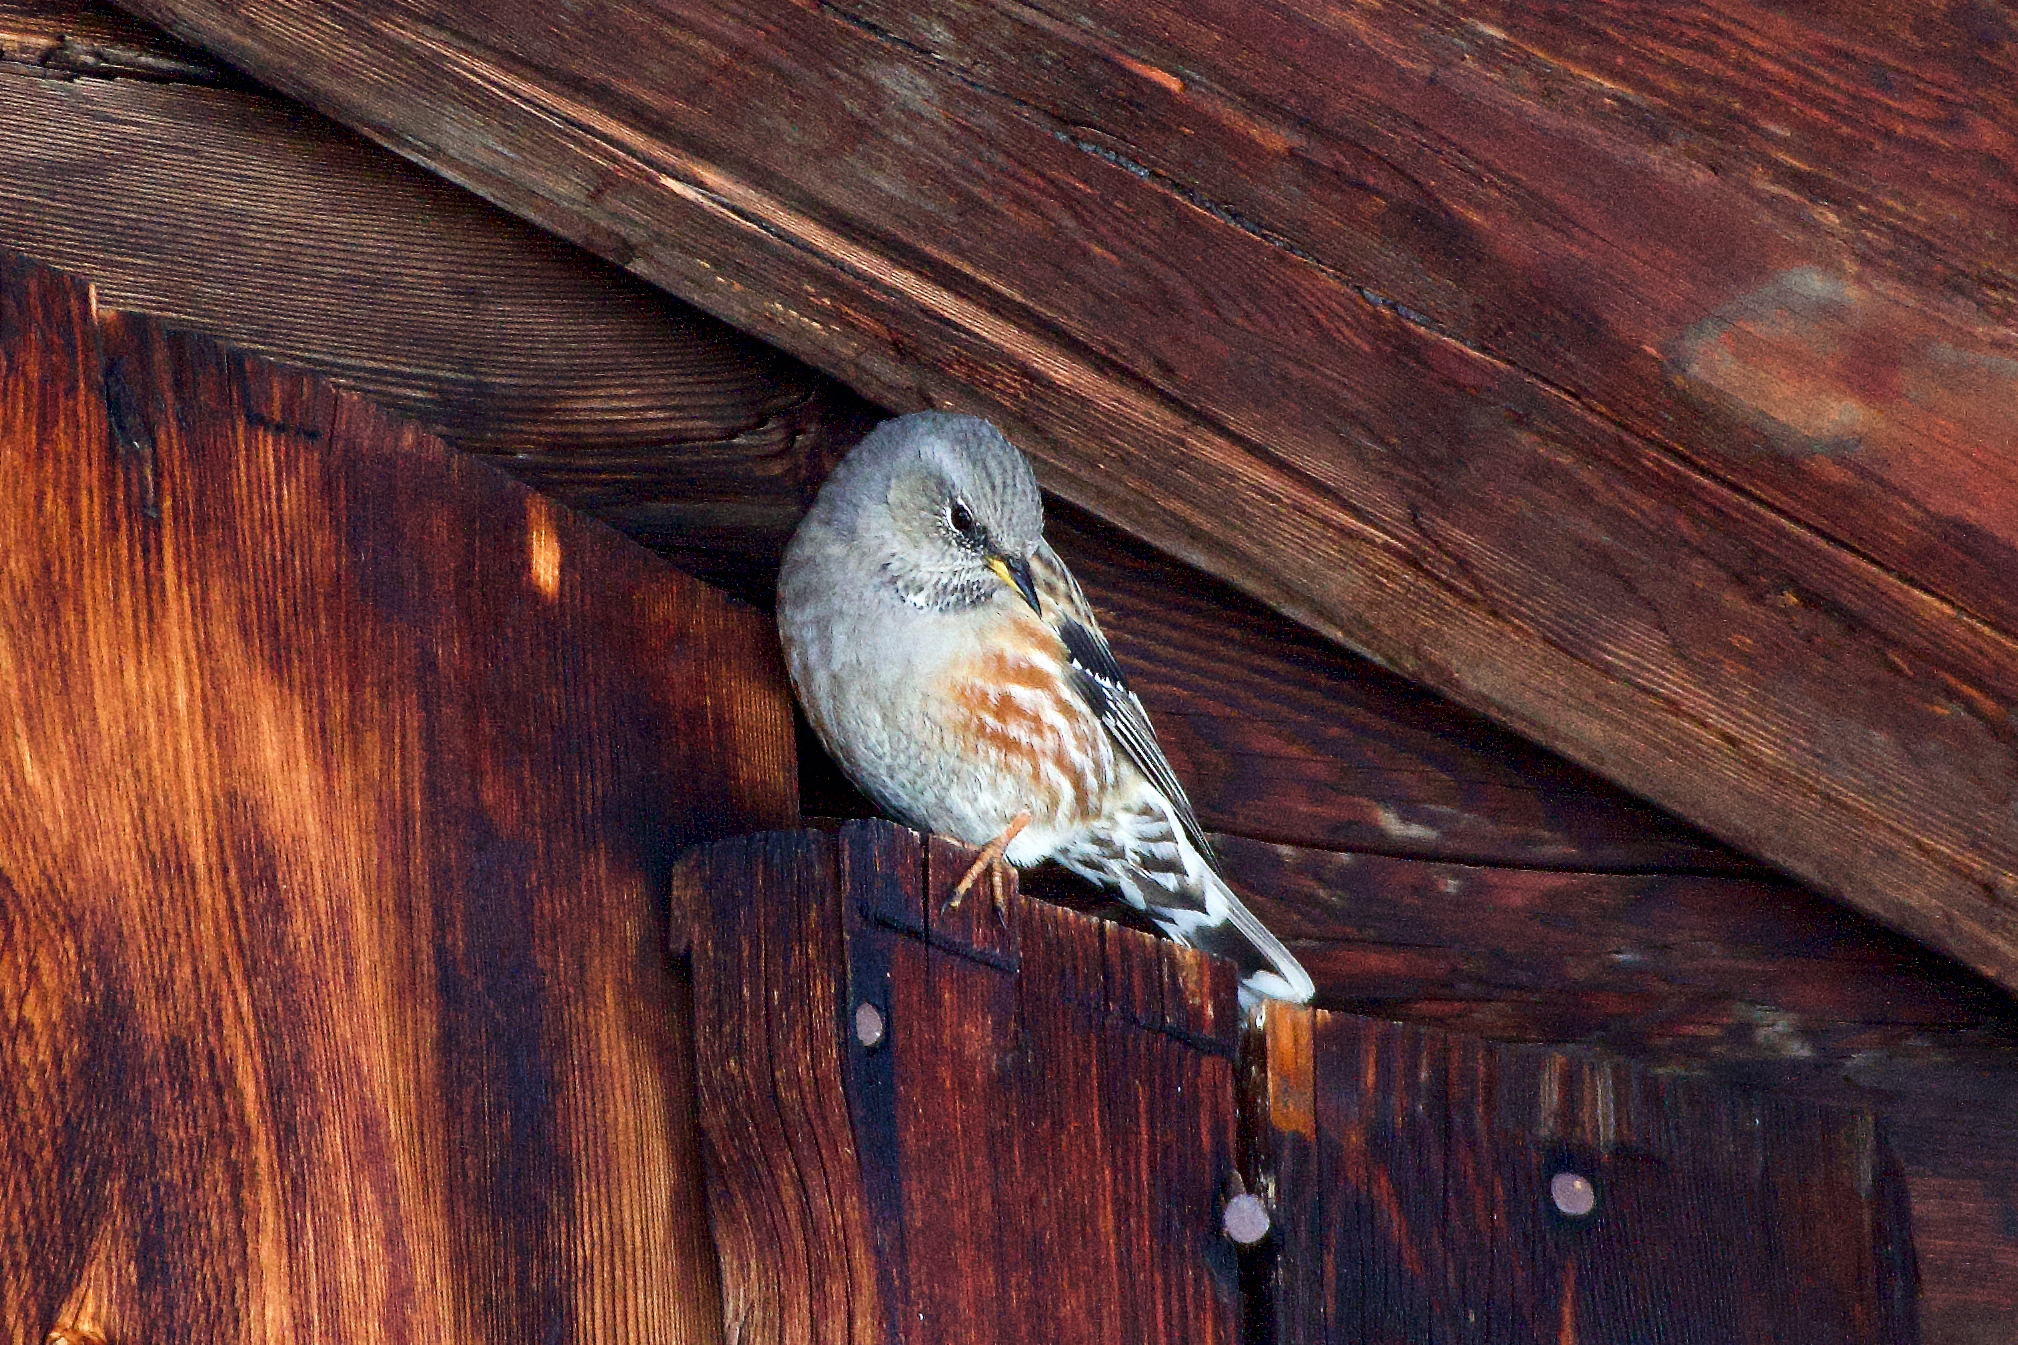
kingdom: Animalia
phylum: Chordata
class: Aves
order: Passeriformes
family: Prunellidae
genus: Prunella
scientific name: Prunella collaris
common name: Alpine accentor
